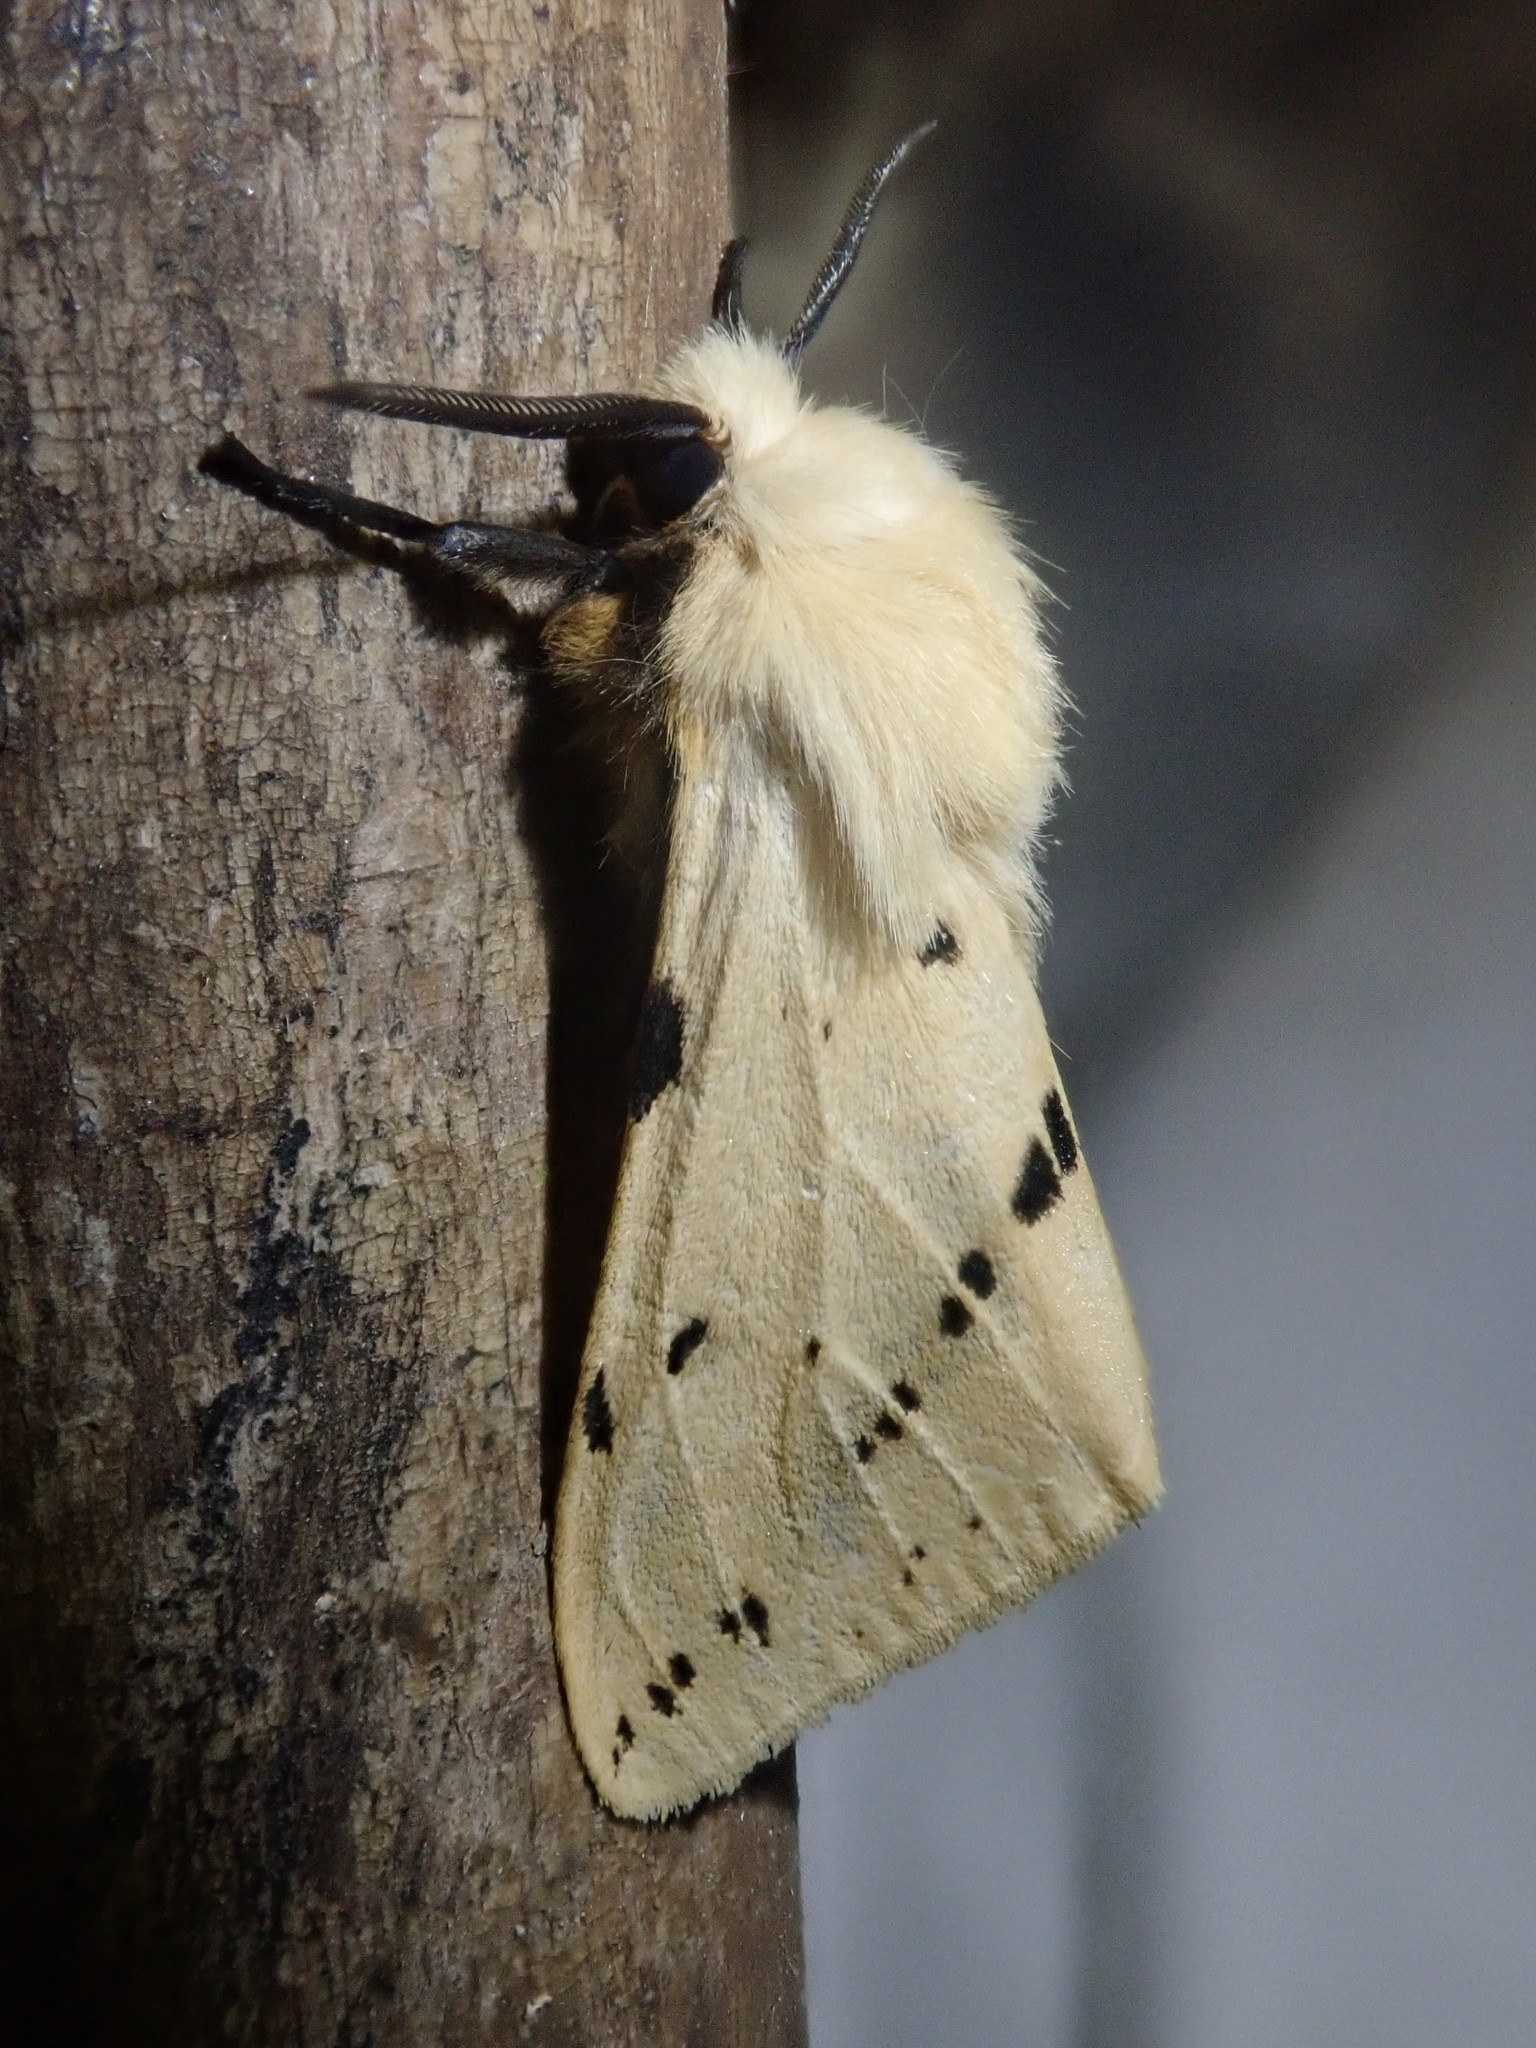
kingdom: Animalia
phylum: Arthropoda
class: Insecta
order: Lepidoptera
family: Erebidae
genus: Spilarctia
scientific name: Spilarctia lutea
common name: Buff ermine
